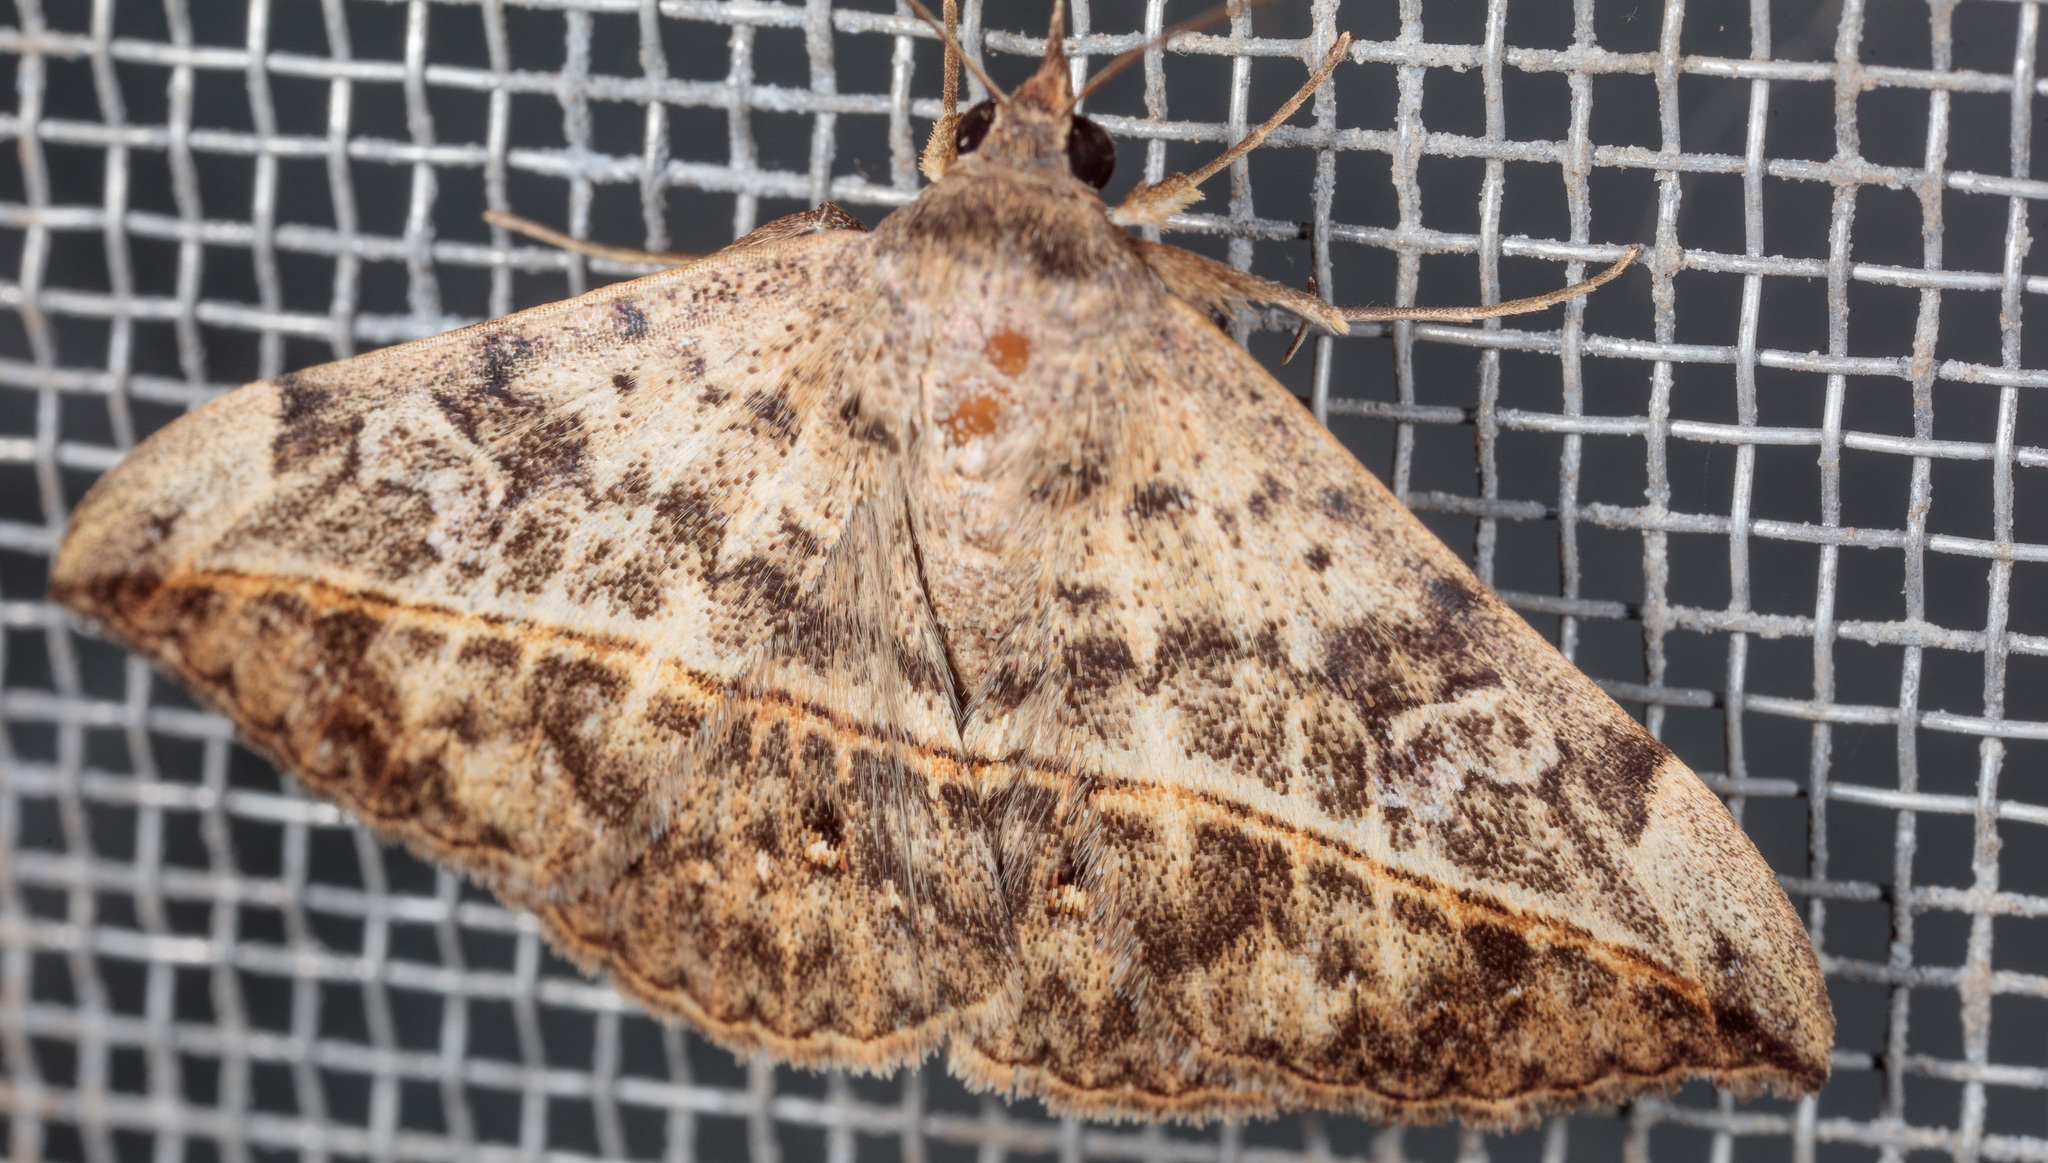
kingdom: Animalia
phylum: Arthropoda
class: Insecta
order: Lepidoptera
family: Erebidae
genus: Anticarsia
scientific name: Anticarsia gemmatalis
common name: Cutworm moth
